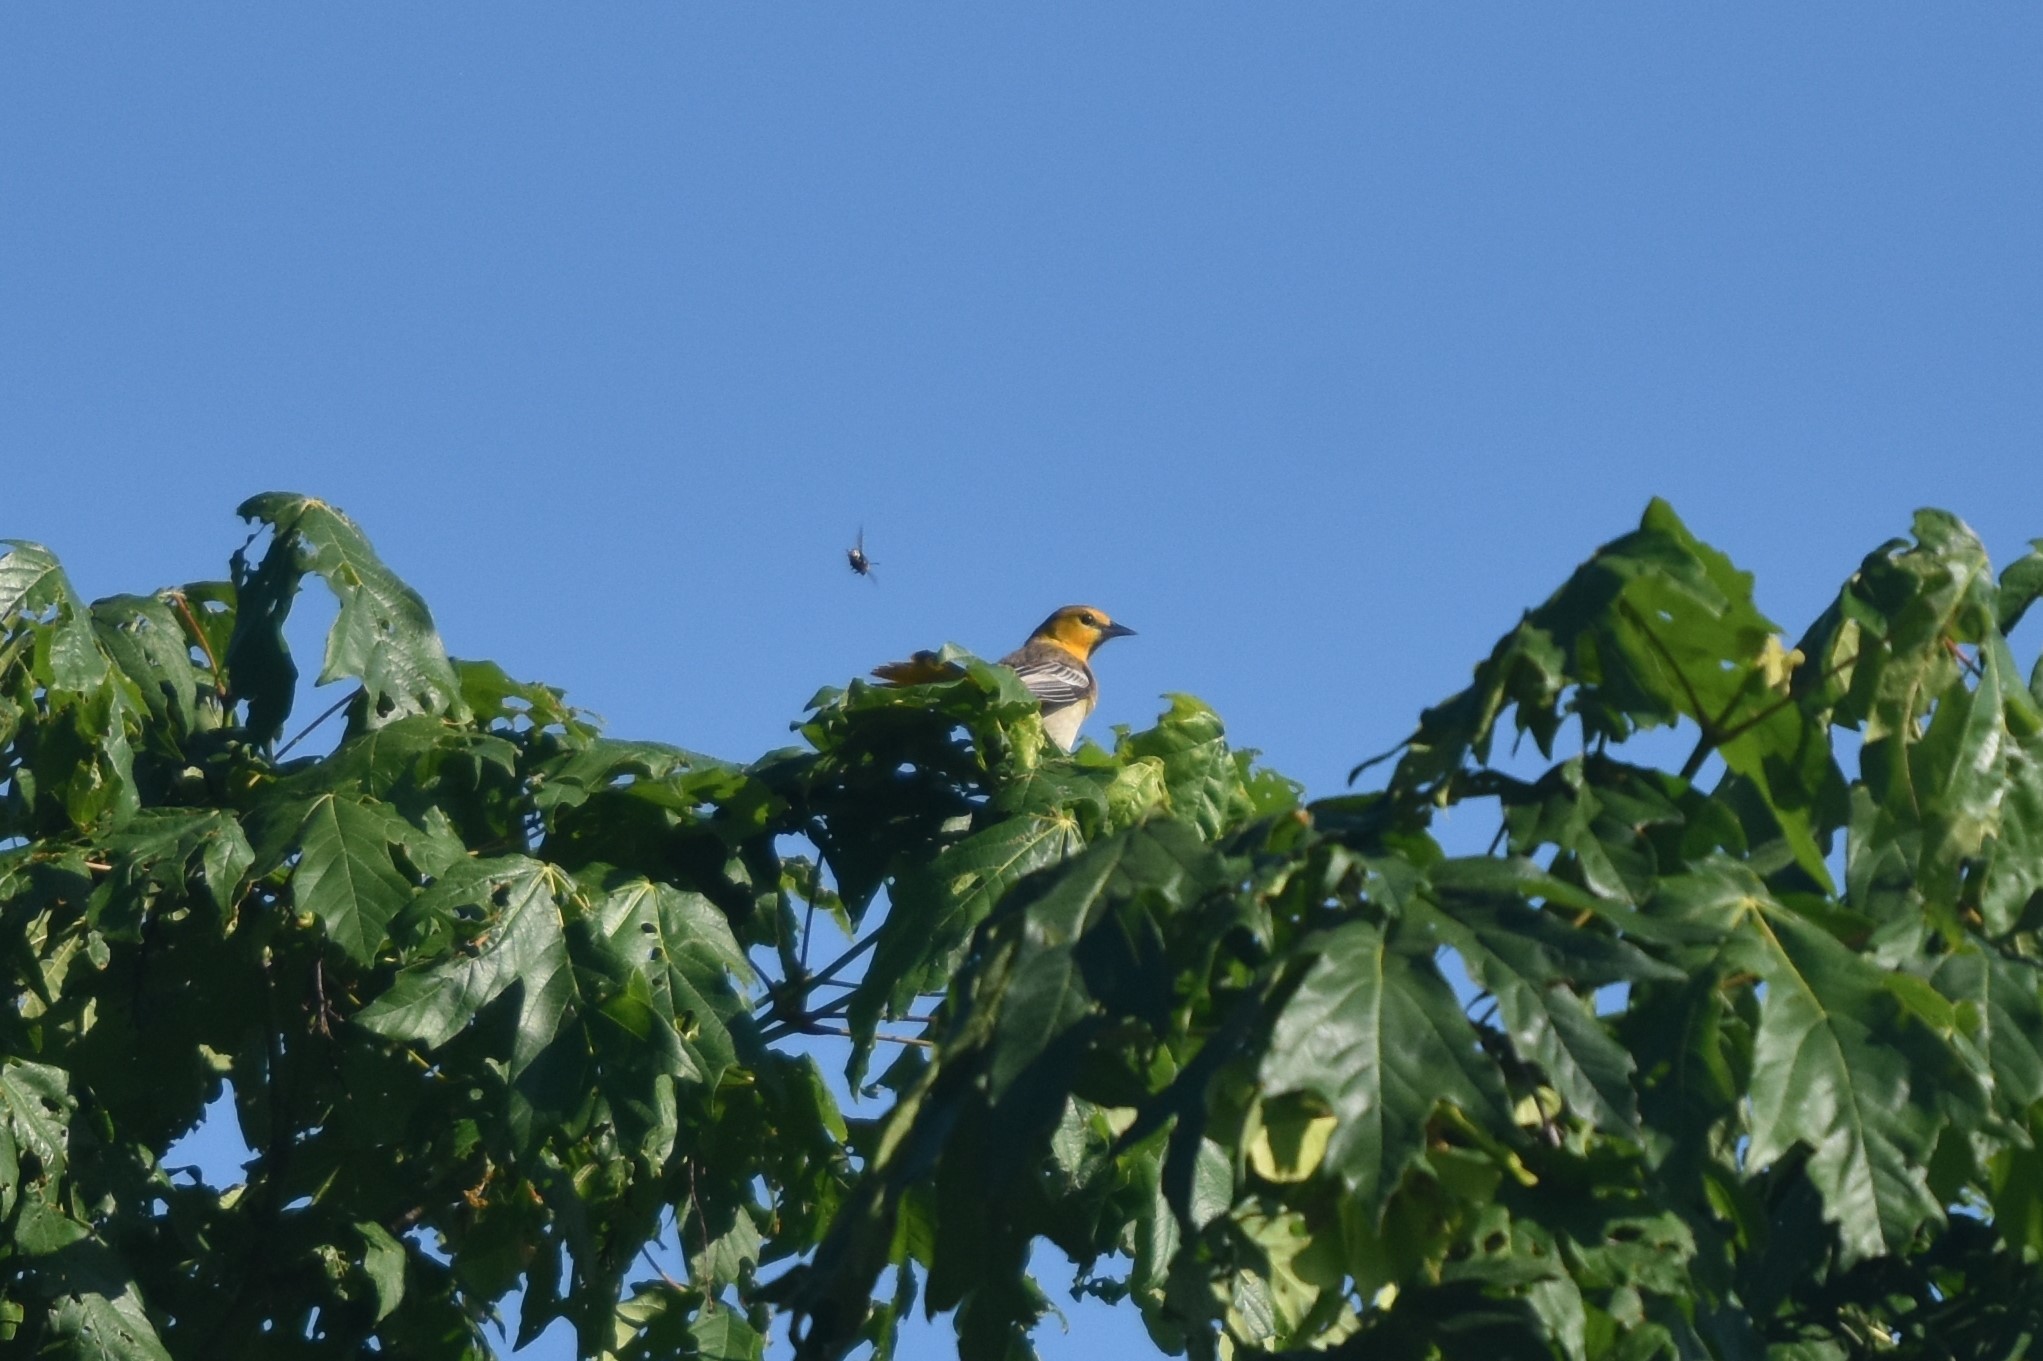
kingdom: Animalia
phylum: Chordata
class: Aves
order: Passeriformes
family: Icteridae
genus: Icterus
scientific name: Icterus bullockii
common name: Bullock's oriole
